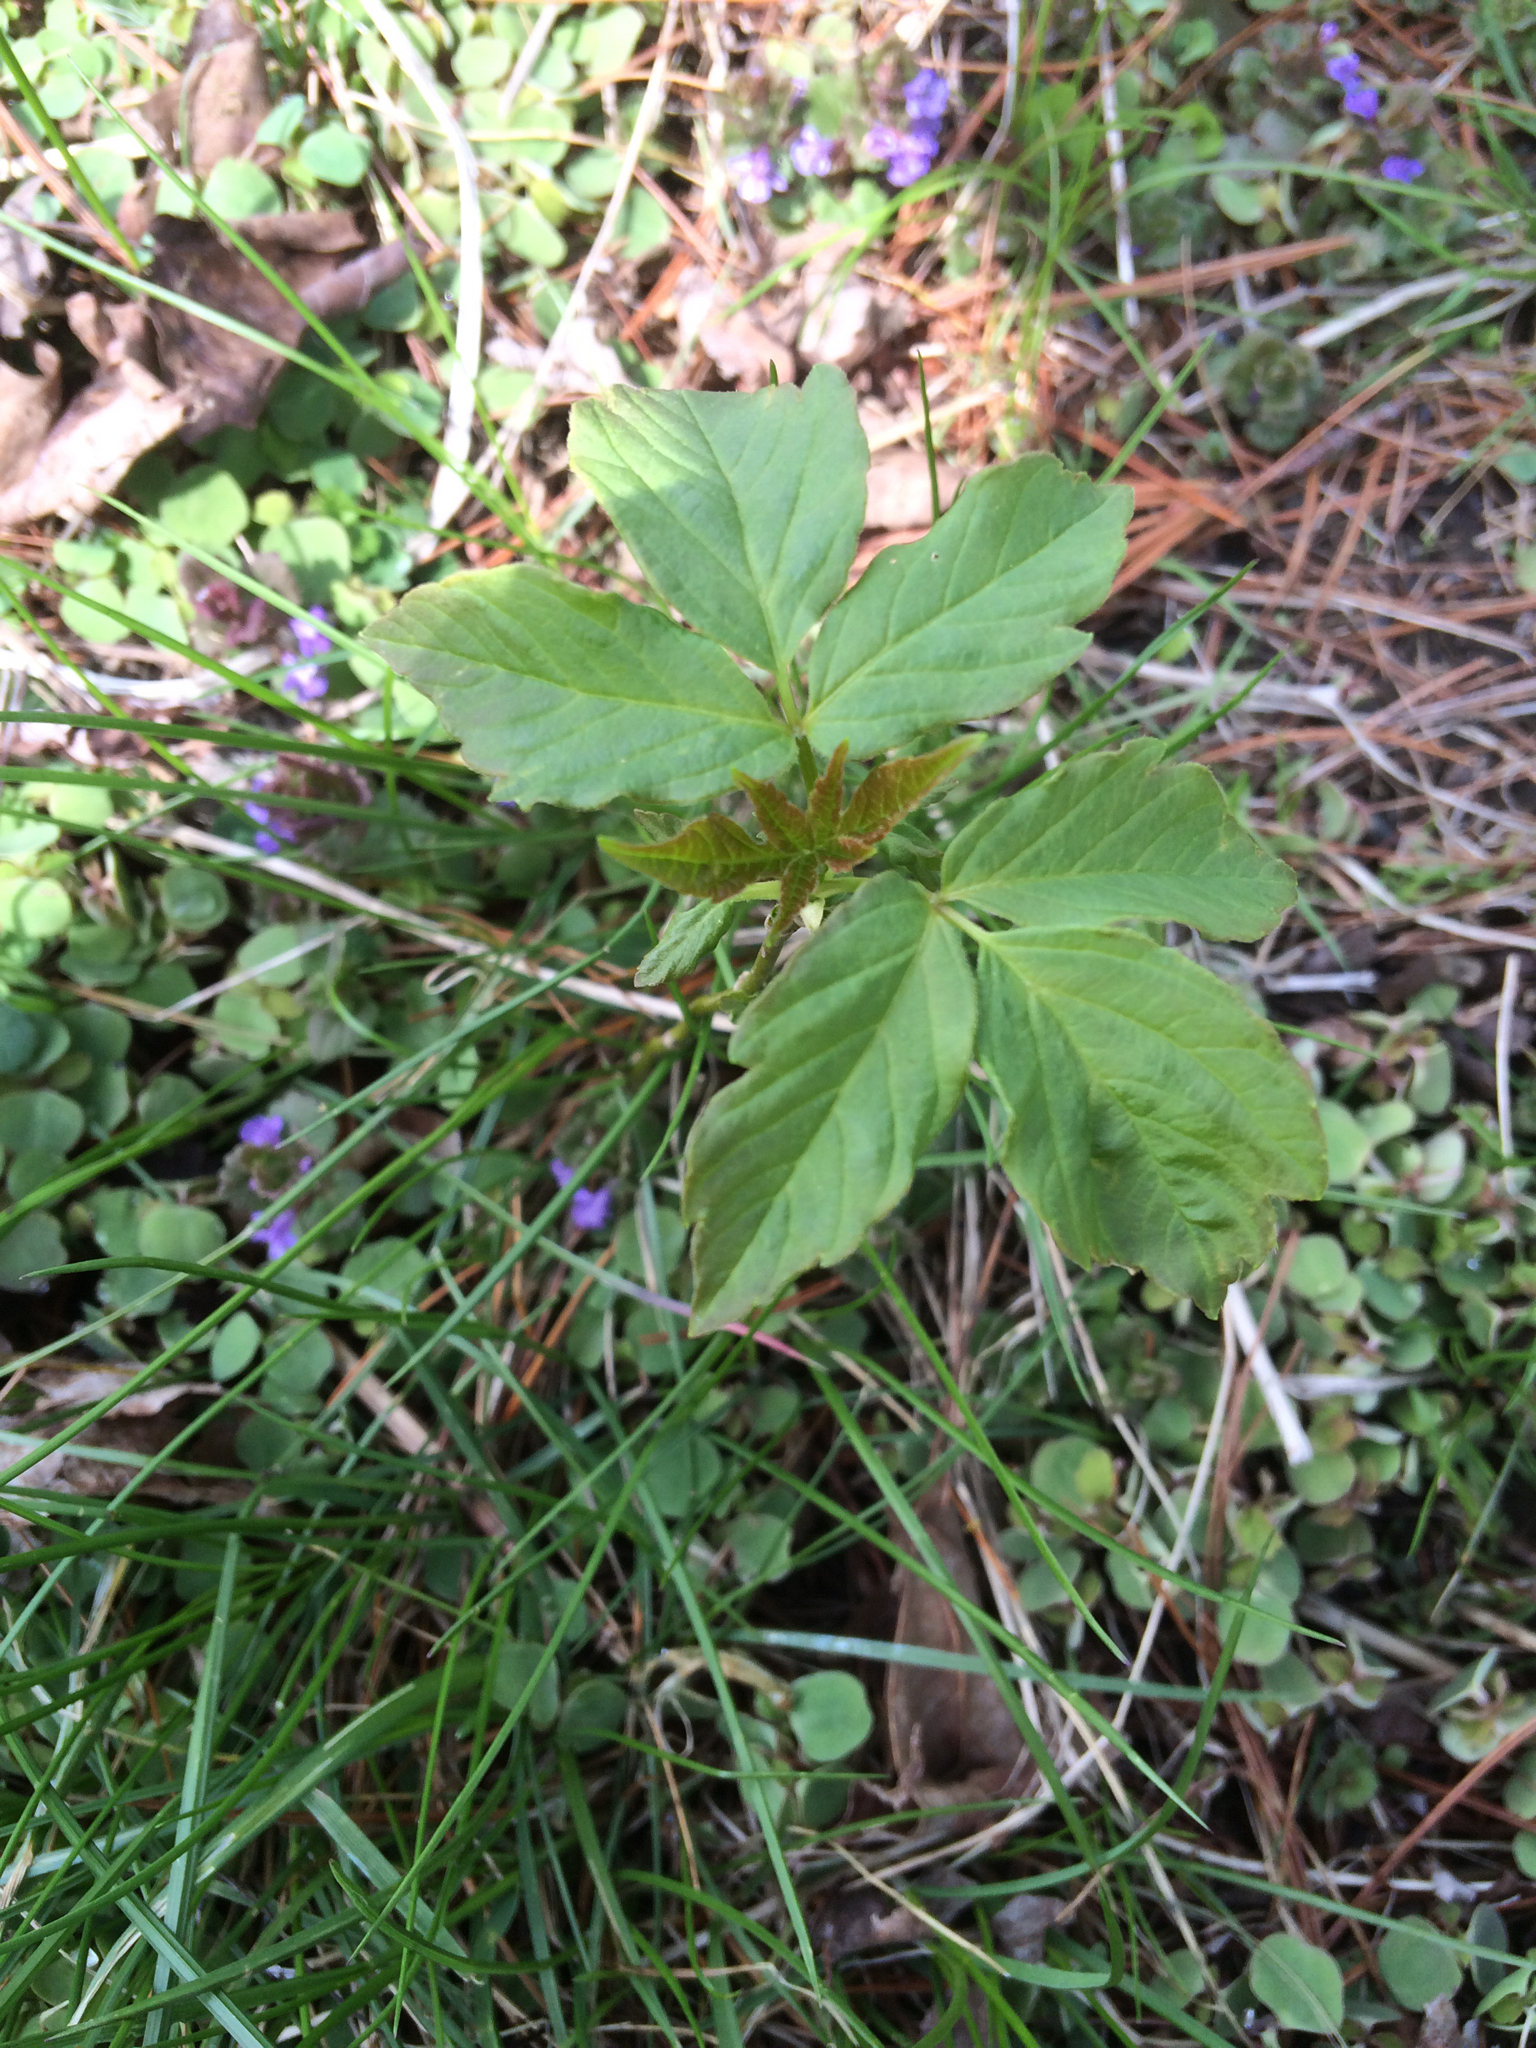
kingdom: Plantae
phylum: Tracheophyta
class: Magnoliopsida
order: Sapindales
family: Sapindaceae
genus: Acer
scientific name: Acer negundo
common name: Ashleaf maple
